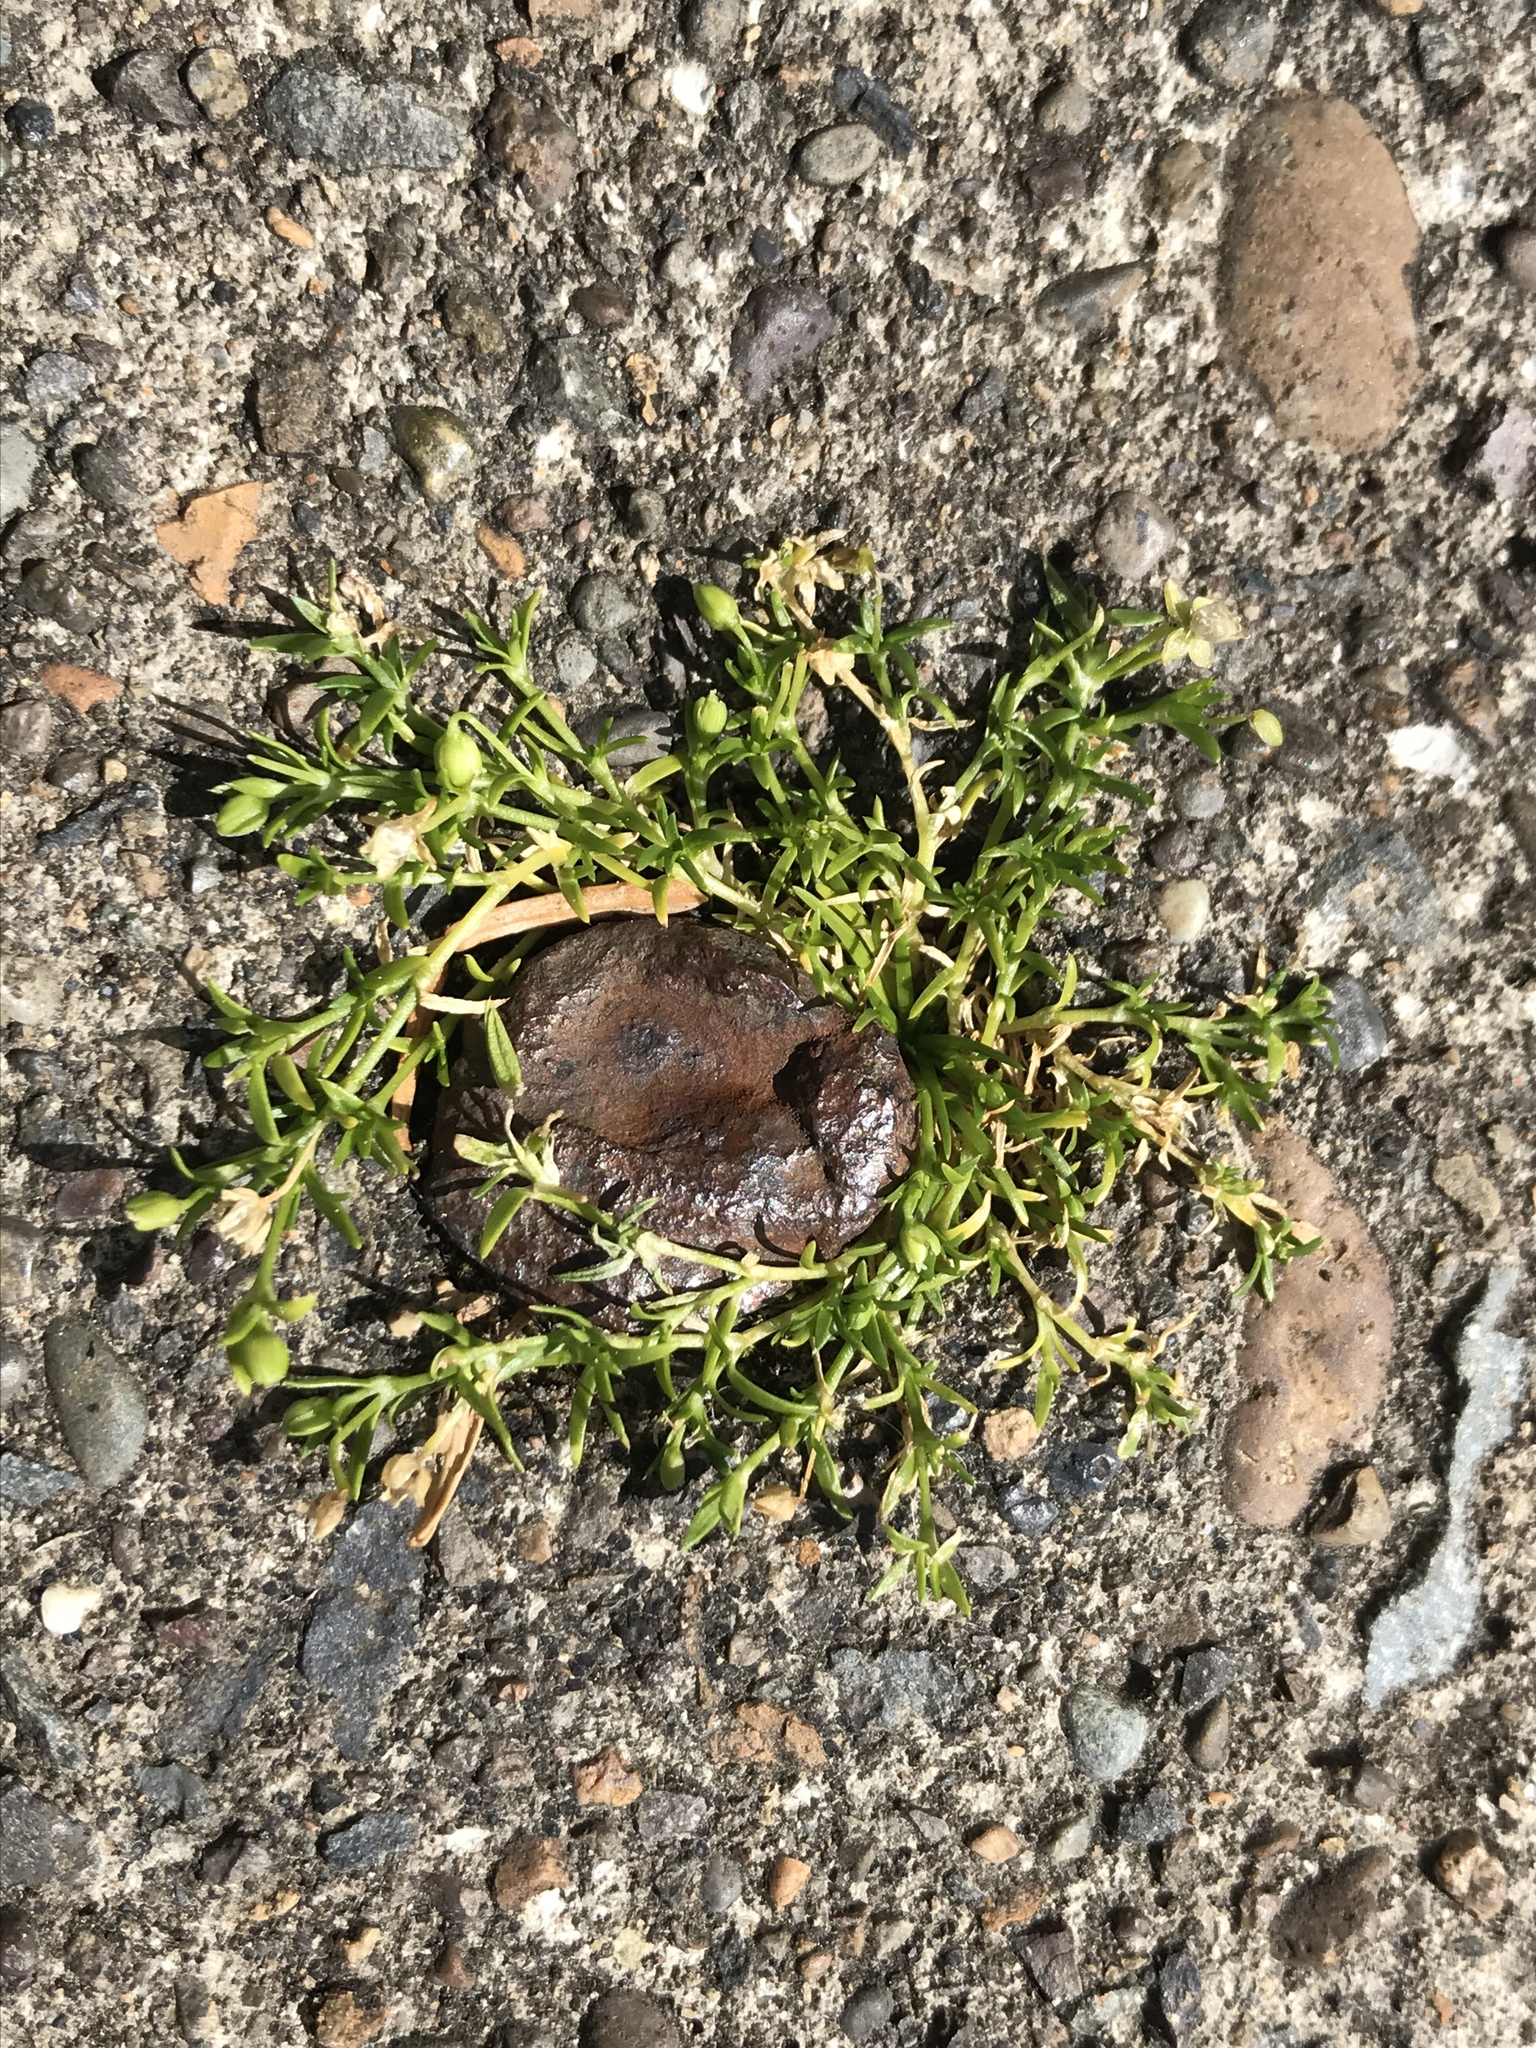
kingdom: Plantae
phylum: Tracheophyta
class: Magnoliopsida
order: Caryophyllales
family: Caryophyllaceae
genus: Sagina
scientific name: Sagina procumbens
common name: Procumbent pearlwort
